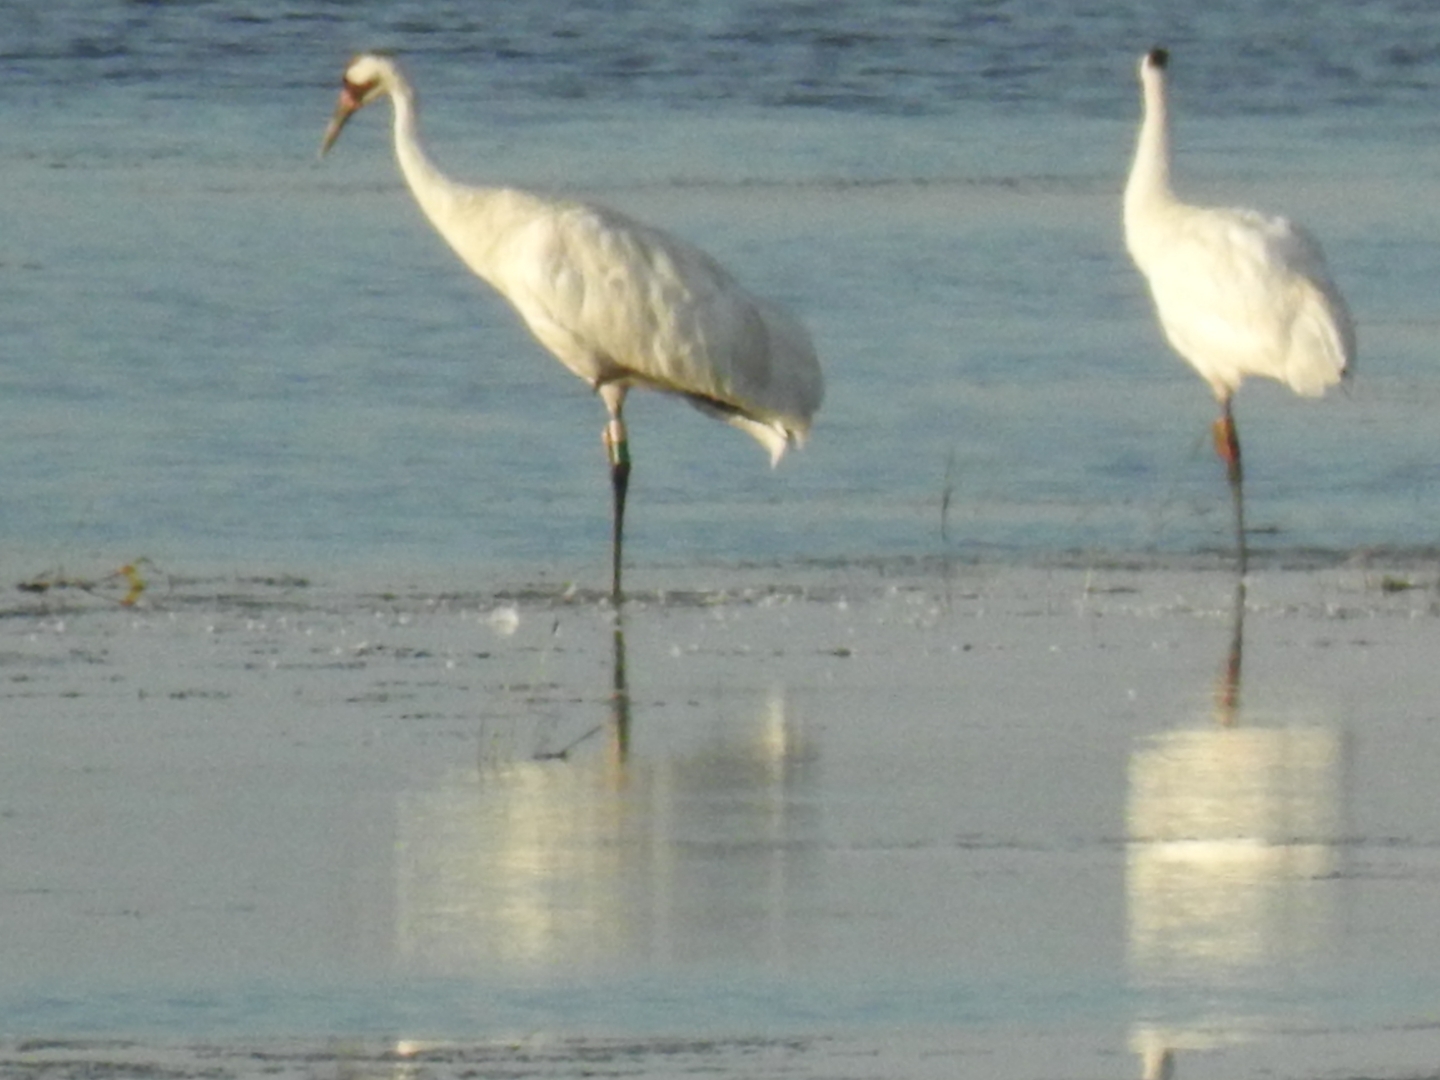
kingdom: Animalia
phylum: Chordata
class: Aves
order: Gruiformes
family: Gruidae
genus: Grus
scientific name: Grus americana
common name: Whooping crane
